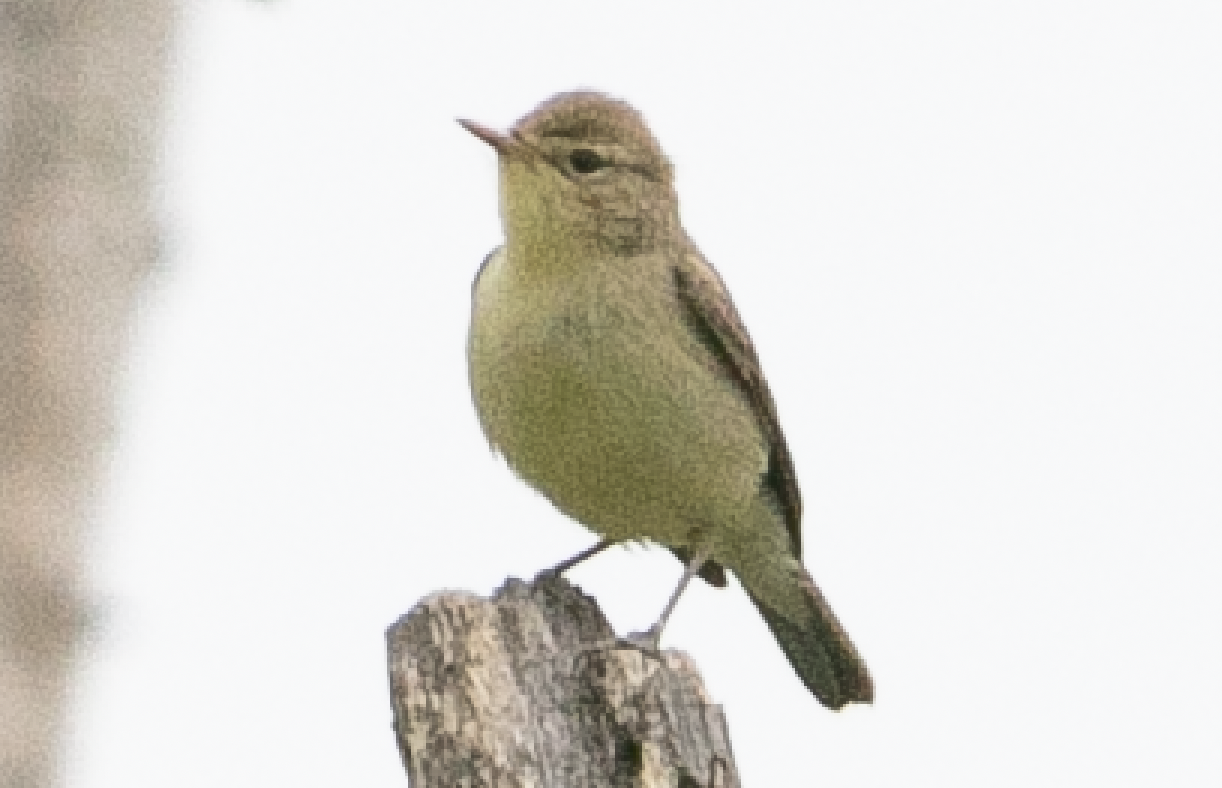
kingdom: Animalia
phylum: Chordata
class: Aves
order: Passeriformes
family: Acrocephalidae
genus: Hippolais
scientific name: Hippolais polyglotta
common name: Melodious warbler
